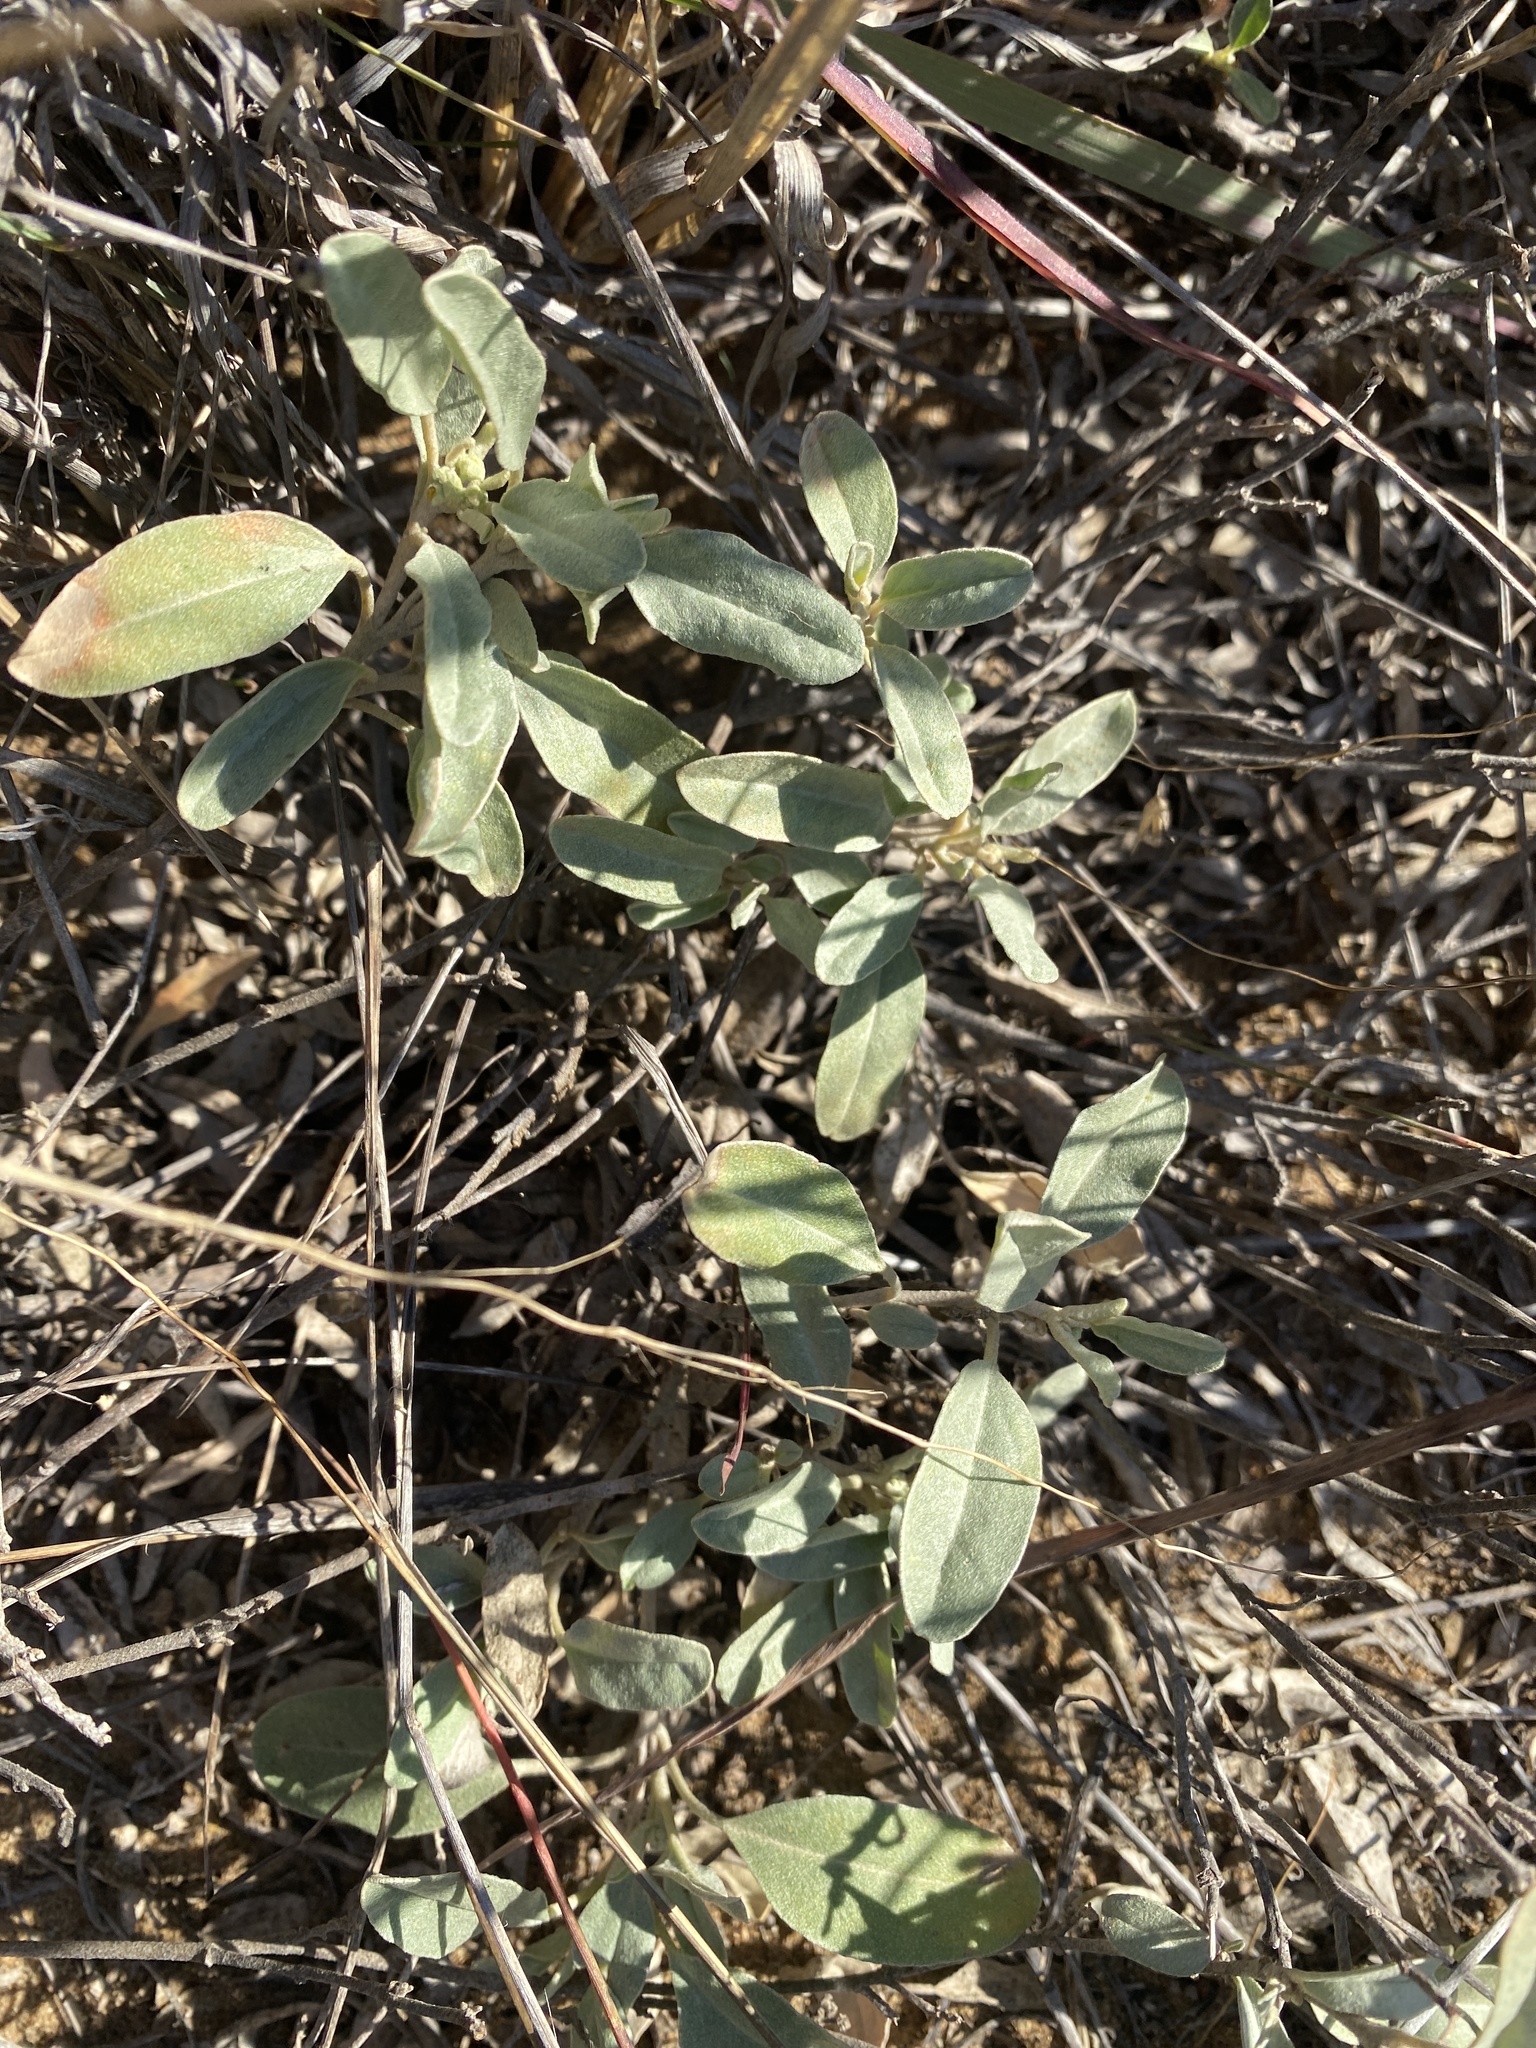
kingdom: Plantae
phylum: Tracheophyta
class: Magnoliopsida
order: Malpighiales
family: Euphorbiaceae
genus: Croton
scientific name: Croton californicus
